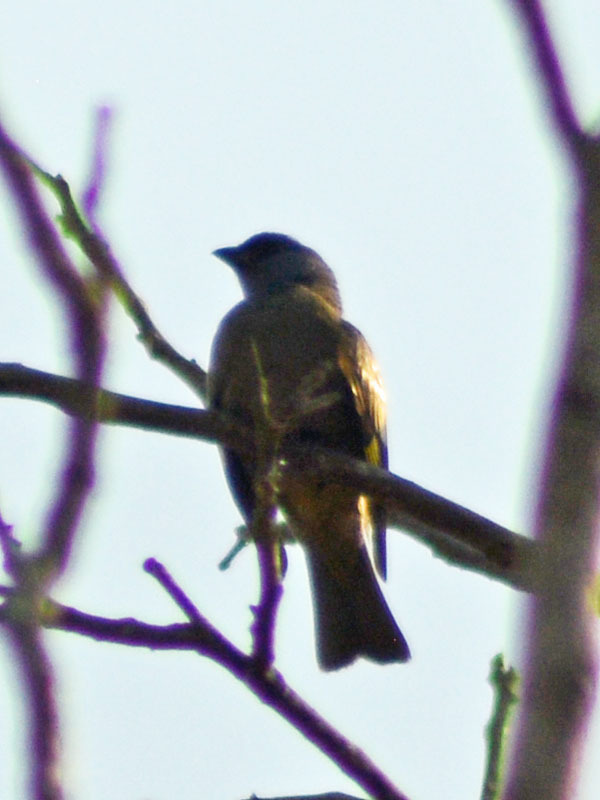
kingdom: Animalia
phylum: Chordata
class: Aves
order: Passeriformes
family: Thraupidae
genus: Thraupis
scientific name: Thraupis abbas
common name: Yellow-winged tanager
